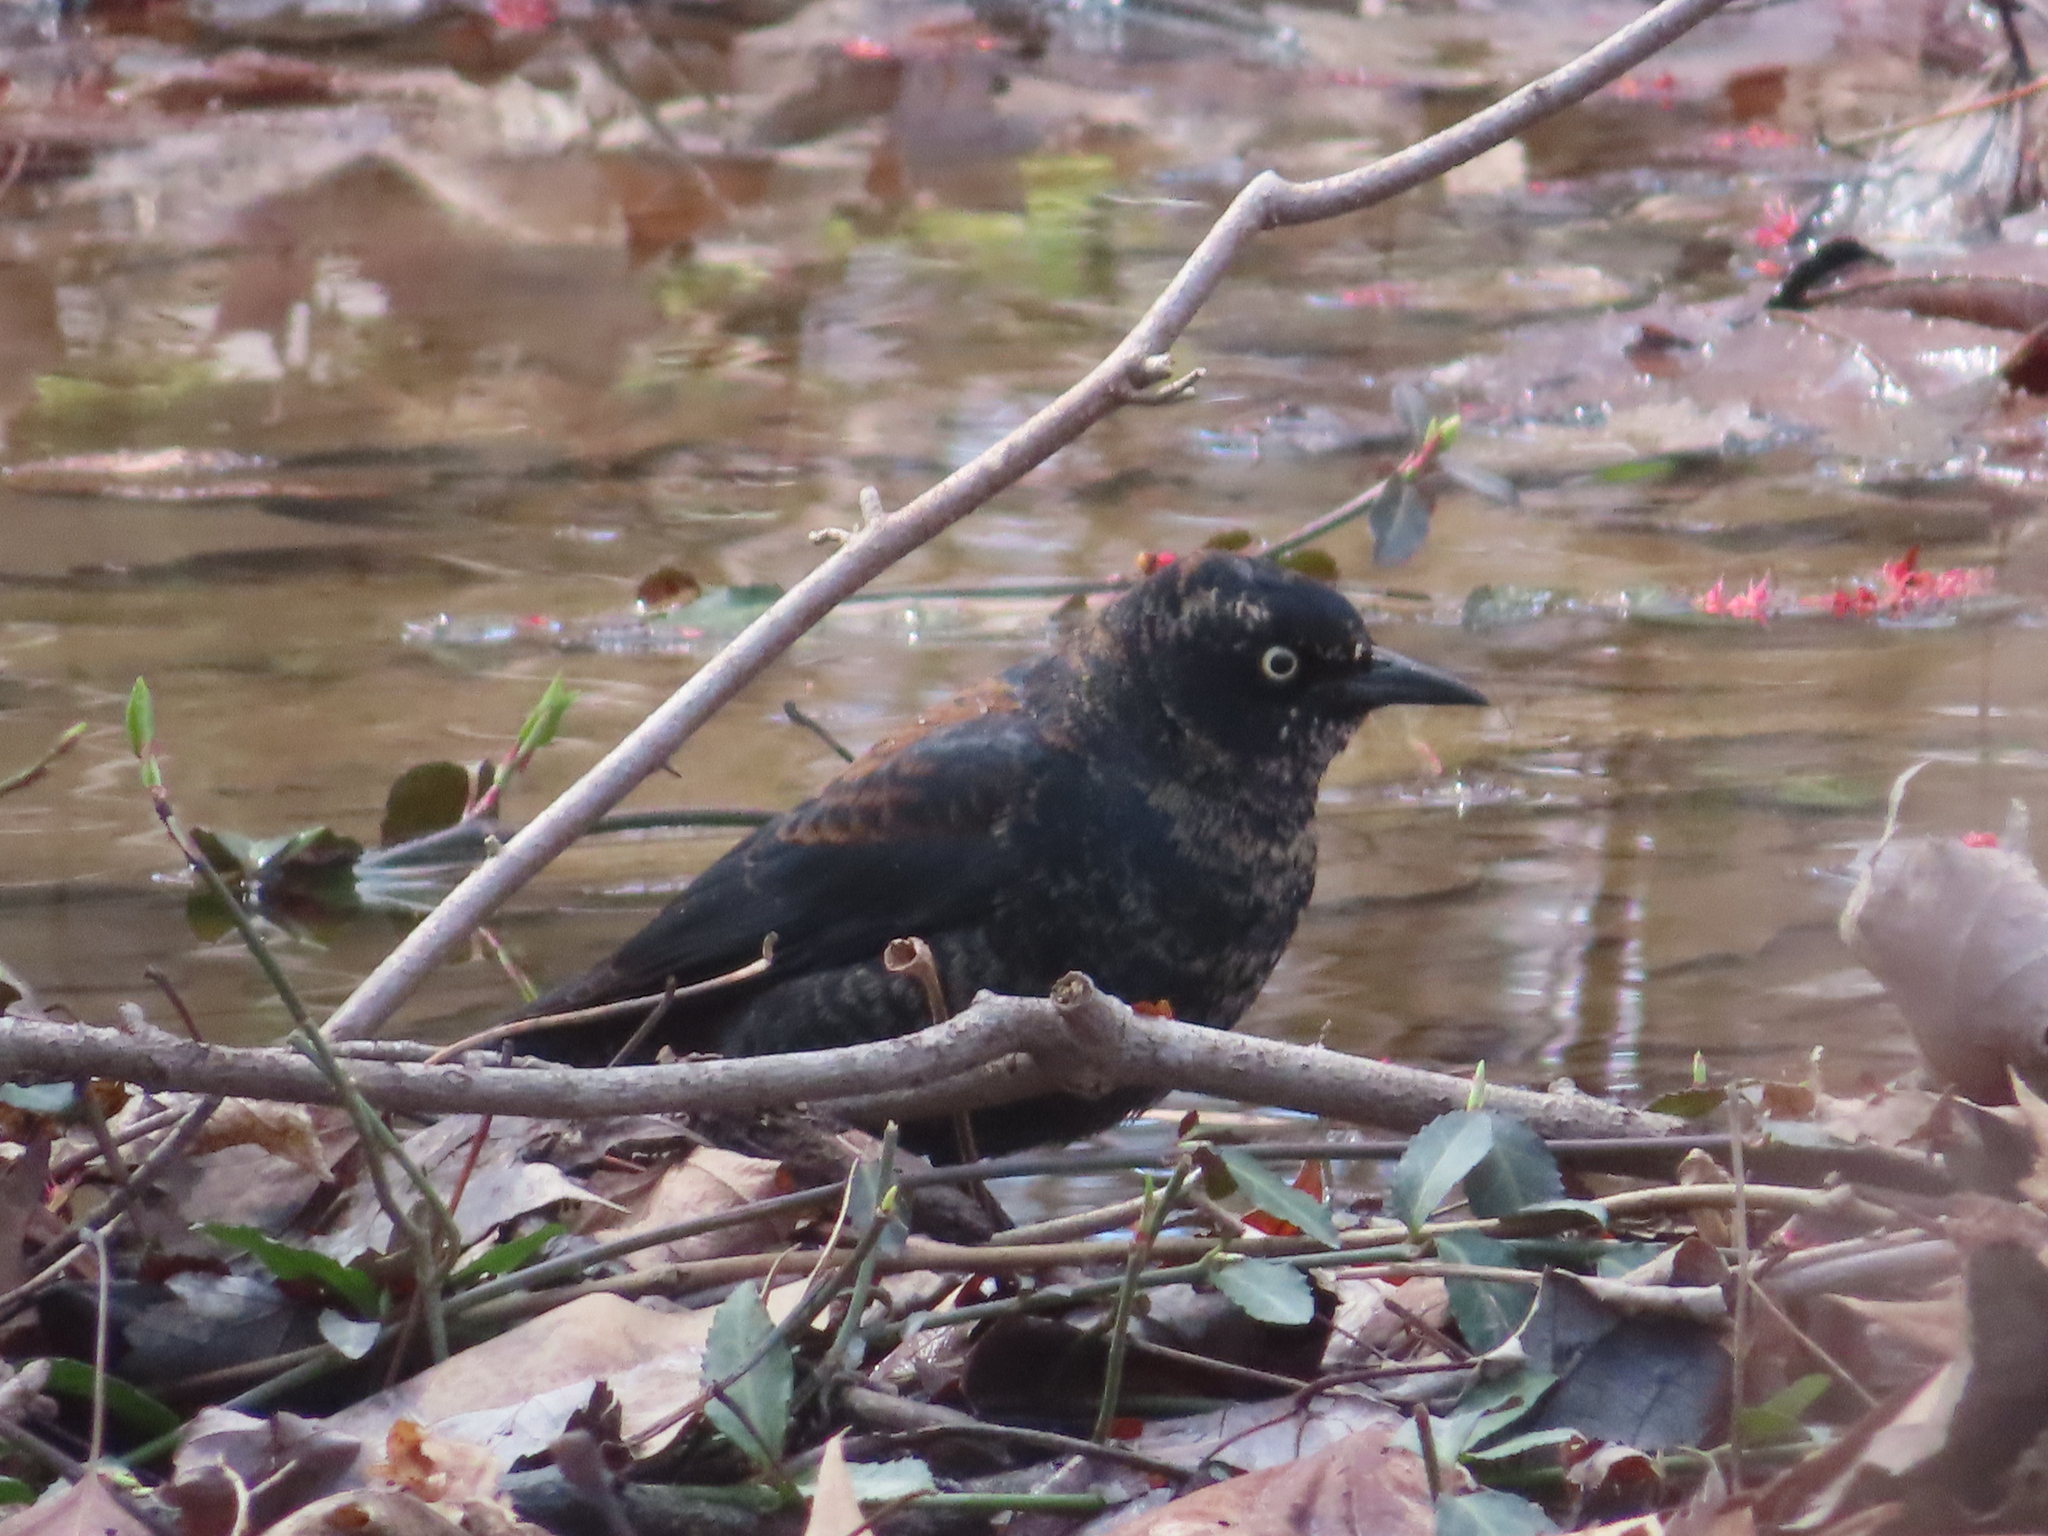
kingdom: Animalia
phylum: Chordata
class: Aves
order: Passeriformes
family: Icteridae
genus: Euphagus
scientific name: Euphagus carolinus
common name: Rusty blackbird
